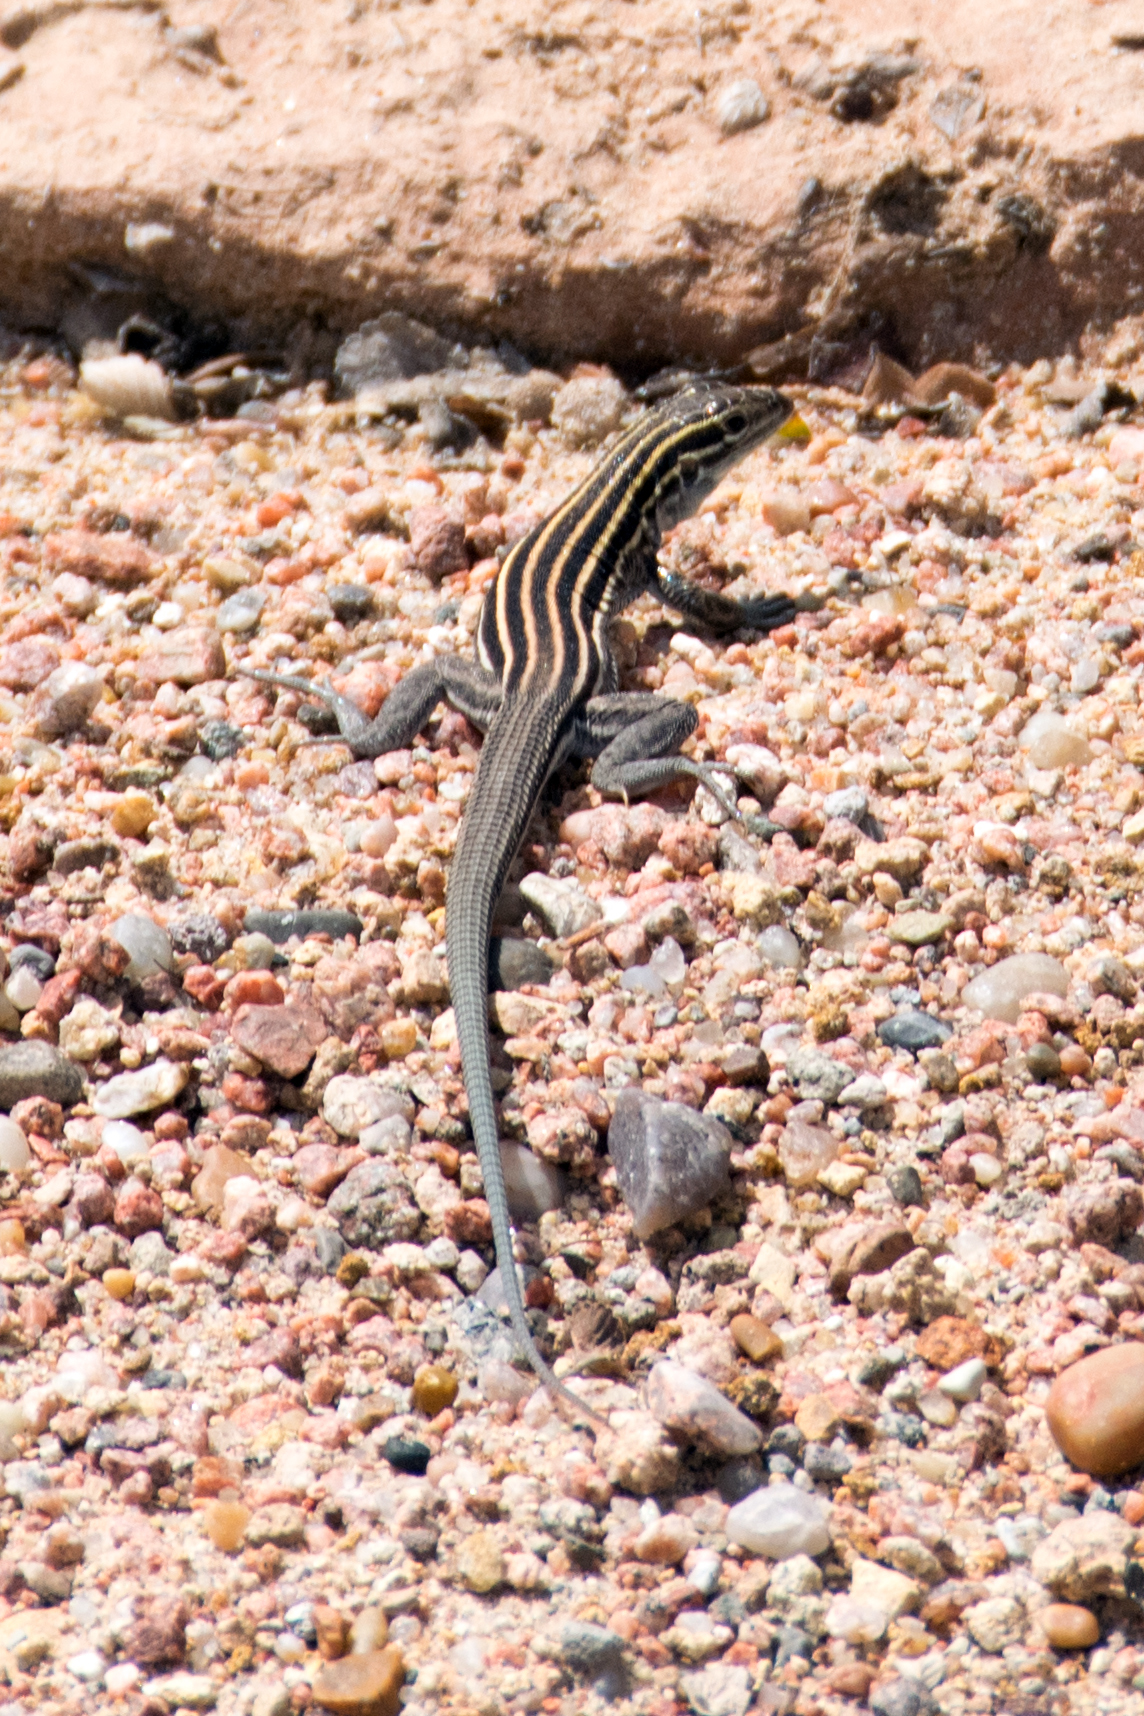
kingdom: Animalia
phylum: Chordata
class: Squamata
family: Teiidae
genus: Aspidoscelis
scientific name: Aspidoscelis velox
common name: Plateau striped whiptail
